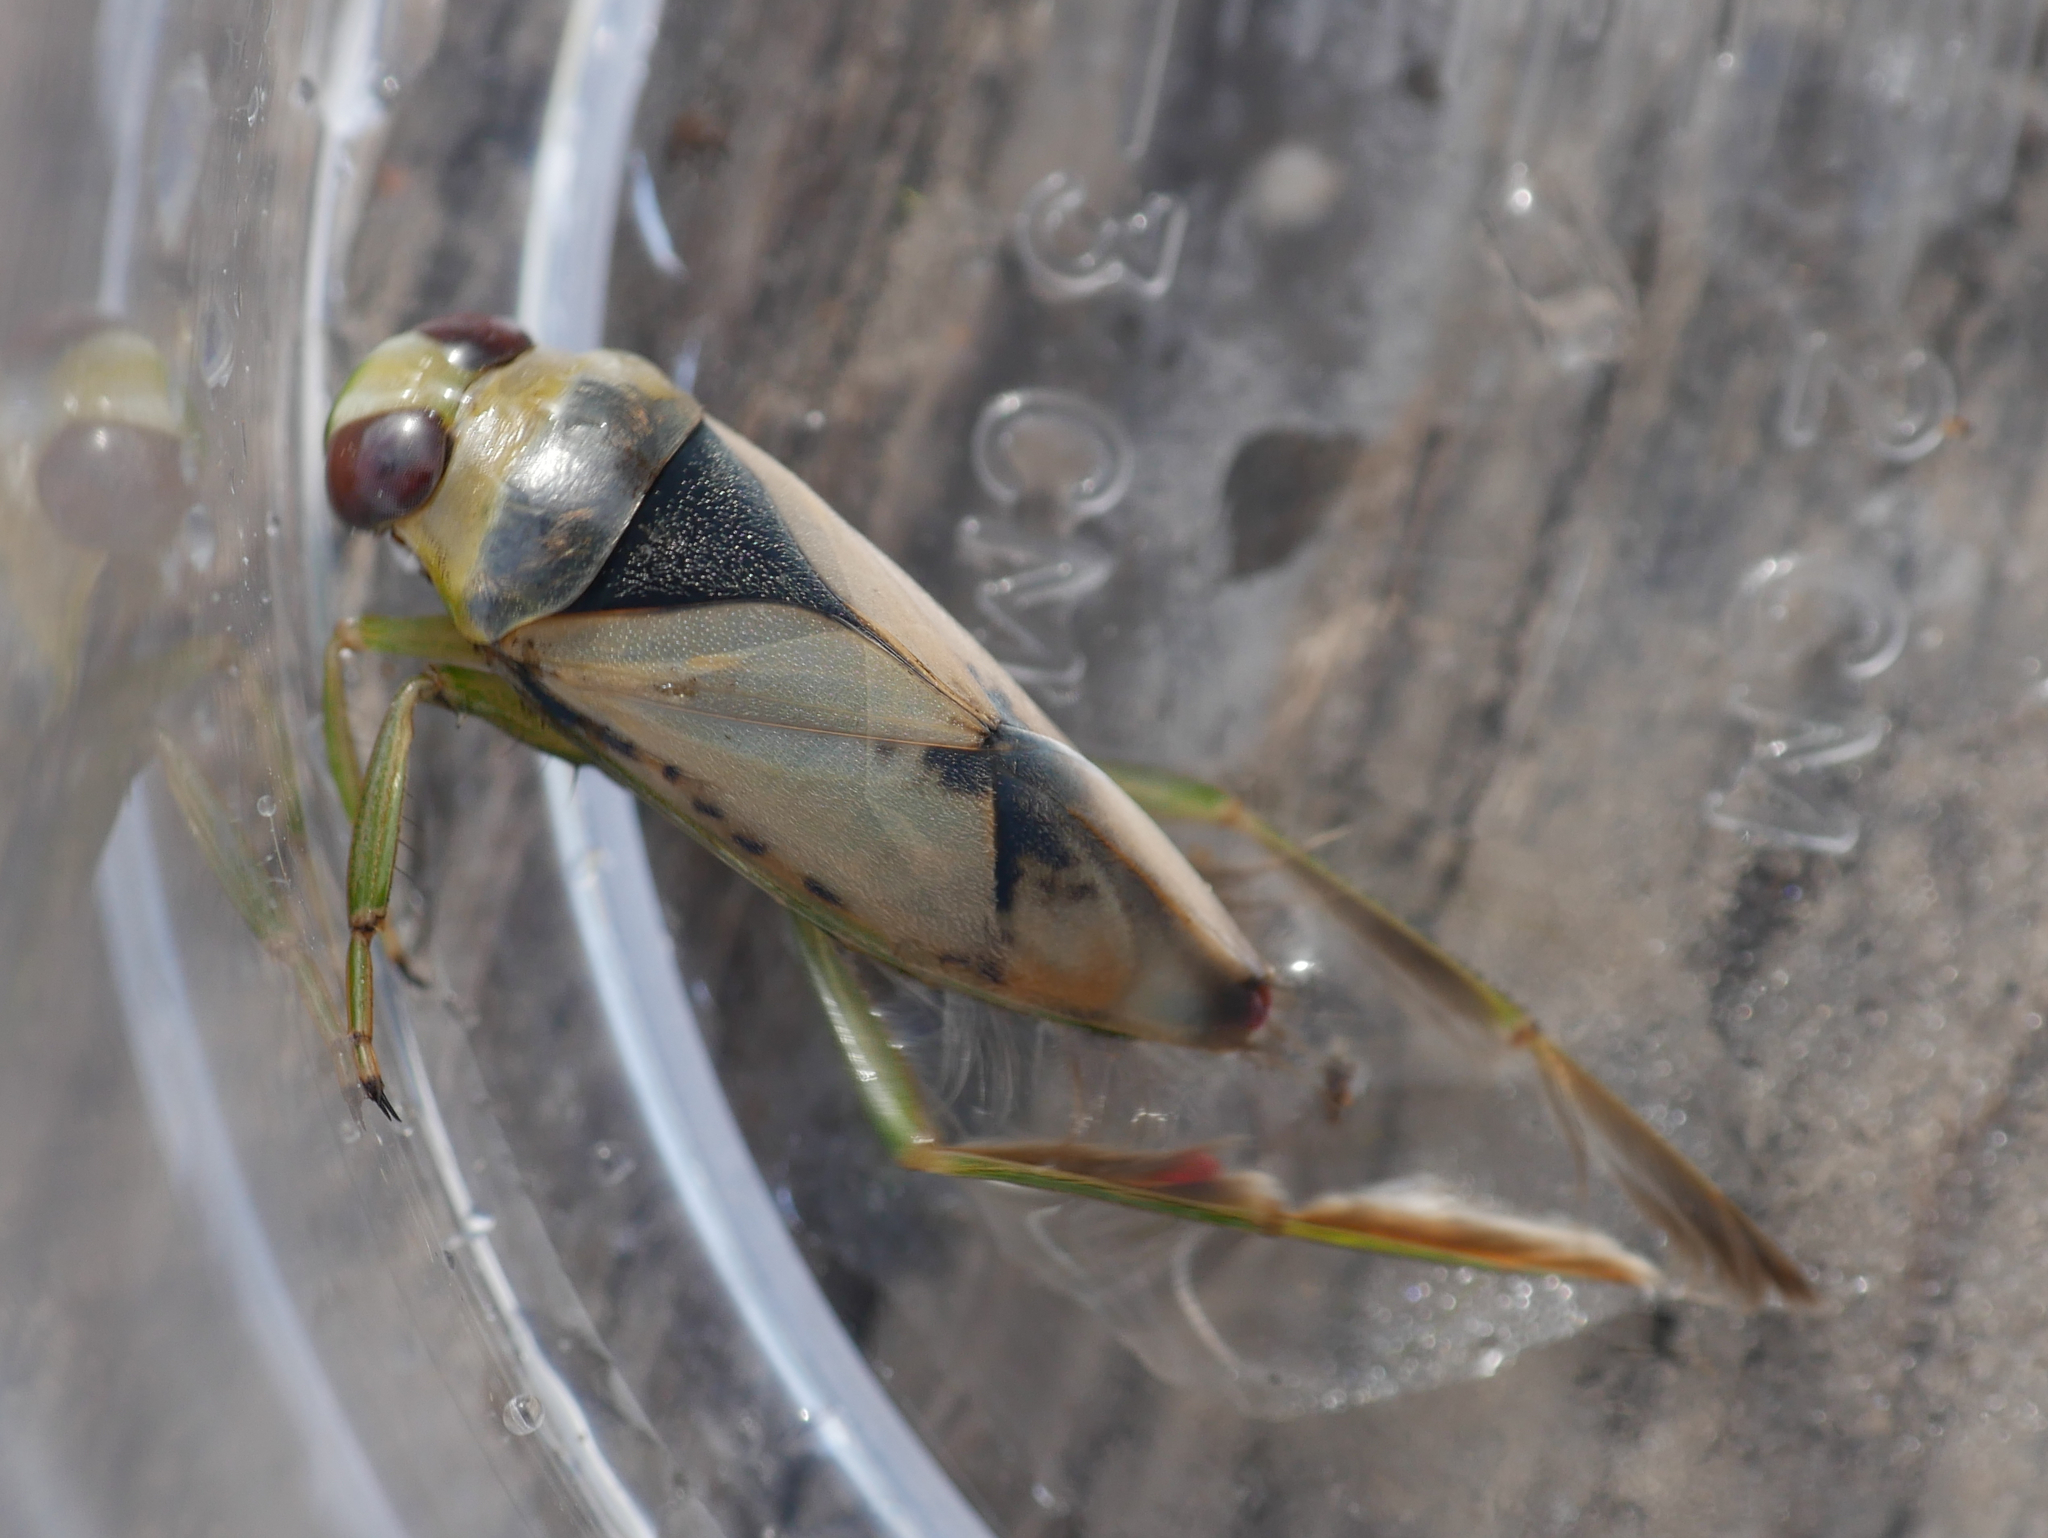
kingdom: Animalia
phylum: Arthropoda
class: Insecta
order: Hemiptera
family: Notonectidae
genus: Notonecta
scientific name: Notonecta viridis
